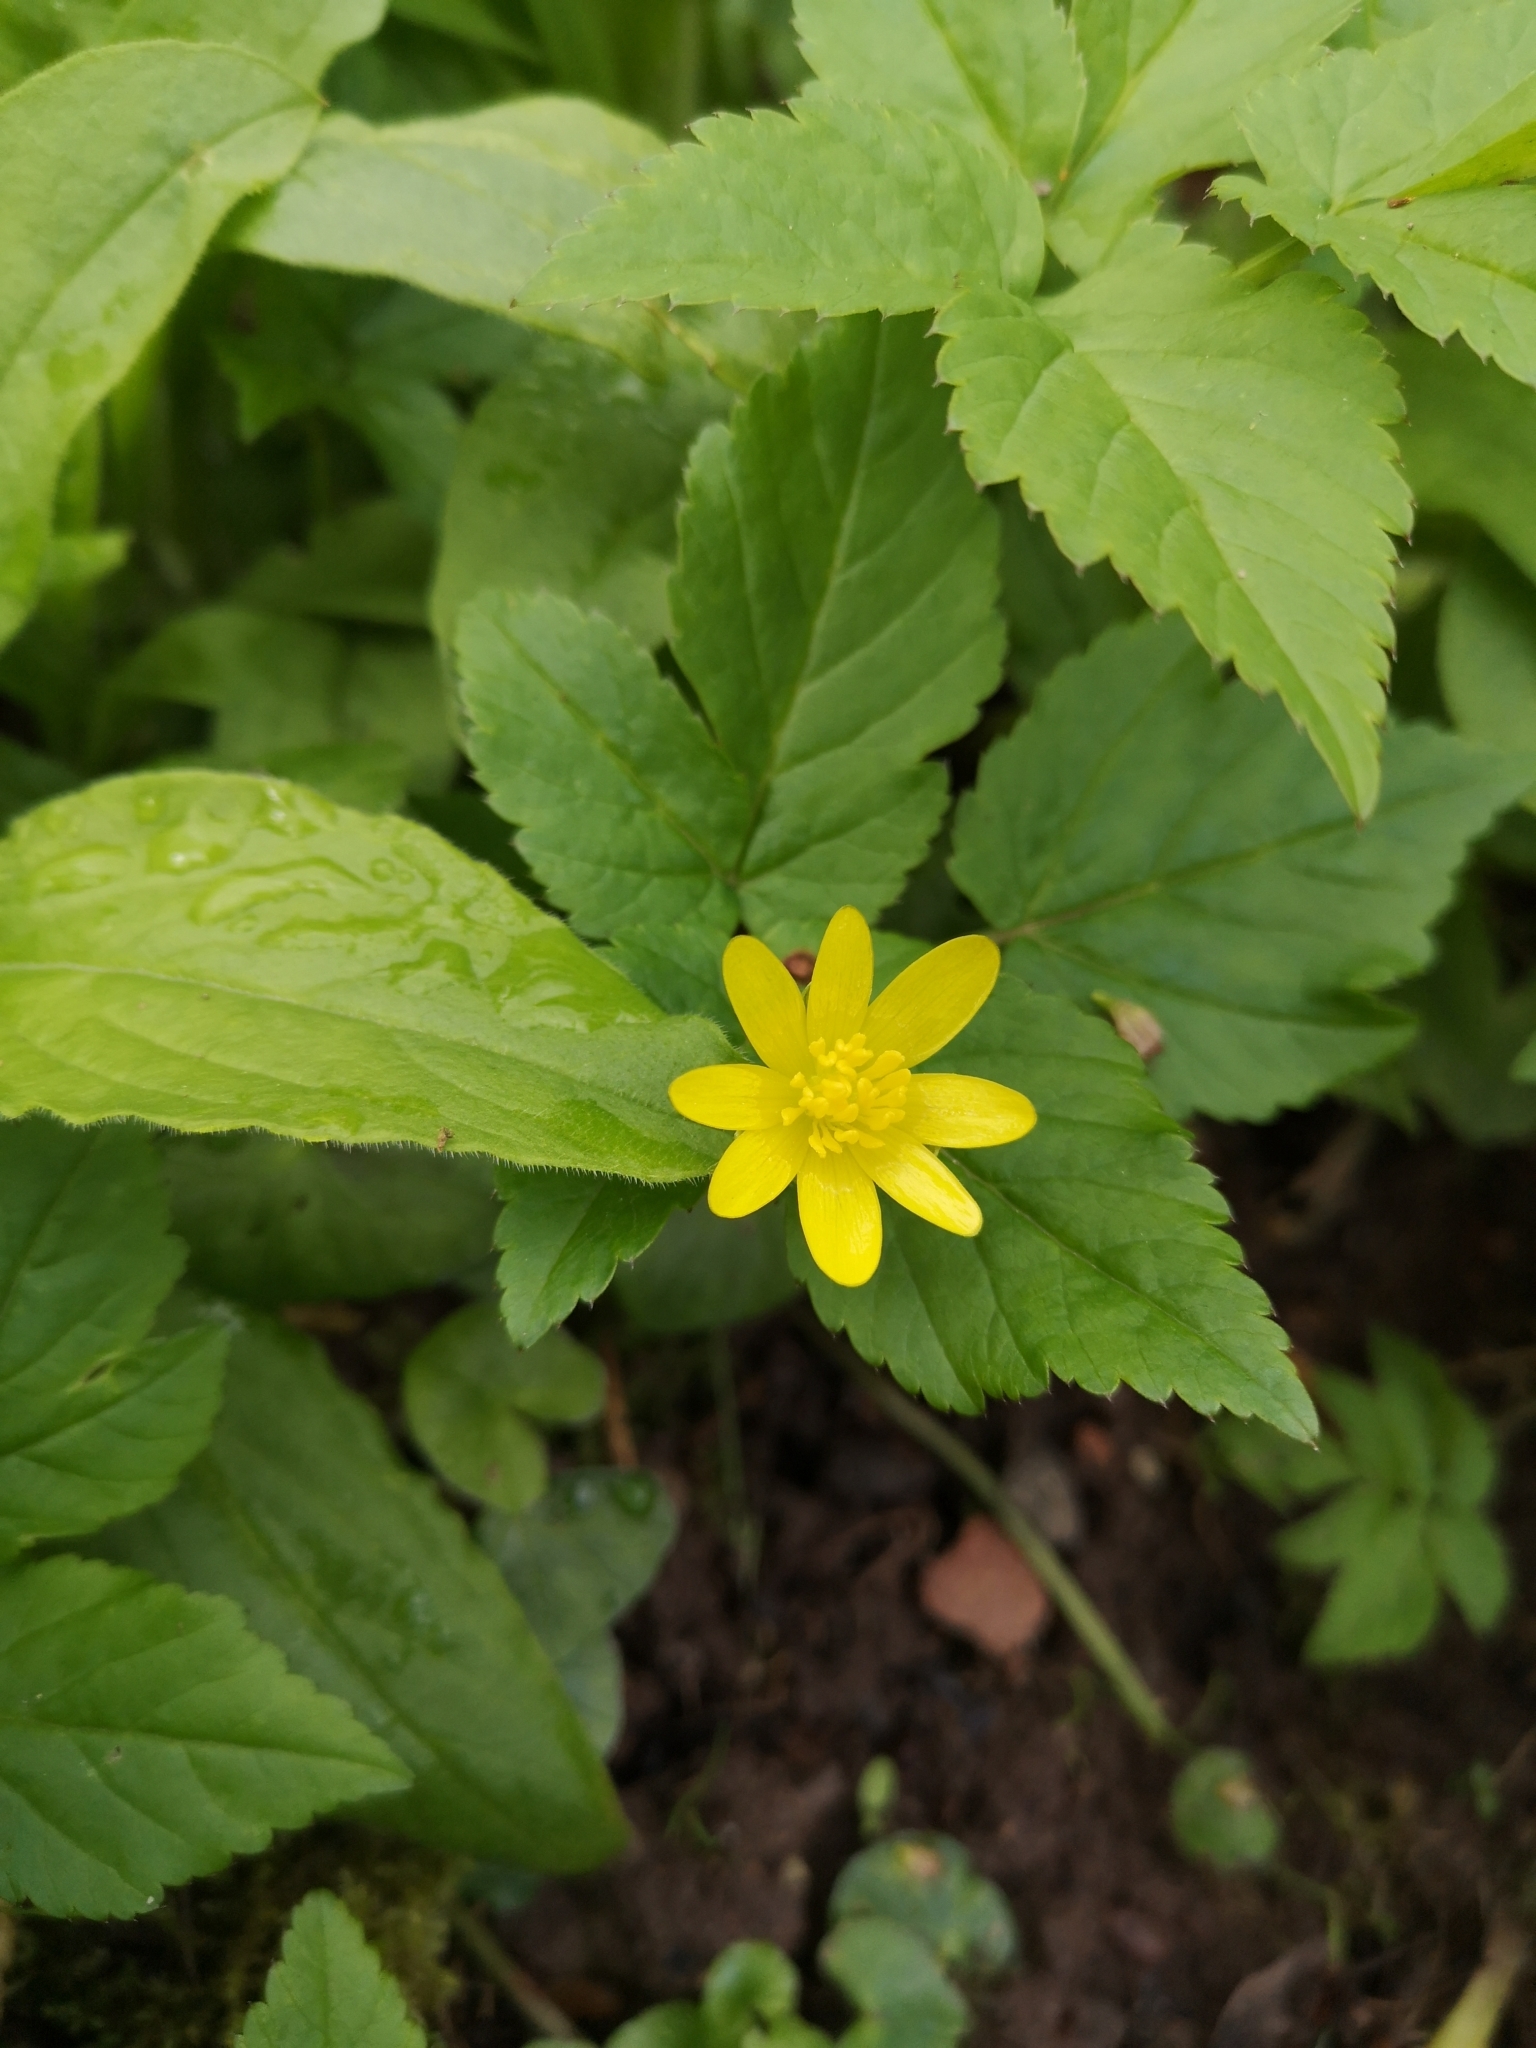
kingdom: Plantae
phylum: Tracheophyta
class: Magnoliopsida
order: Ranunculales
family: Ranunculaceae
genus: Ficaria
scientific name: Ficaria verna
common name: Lesser celandine
